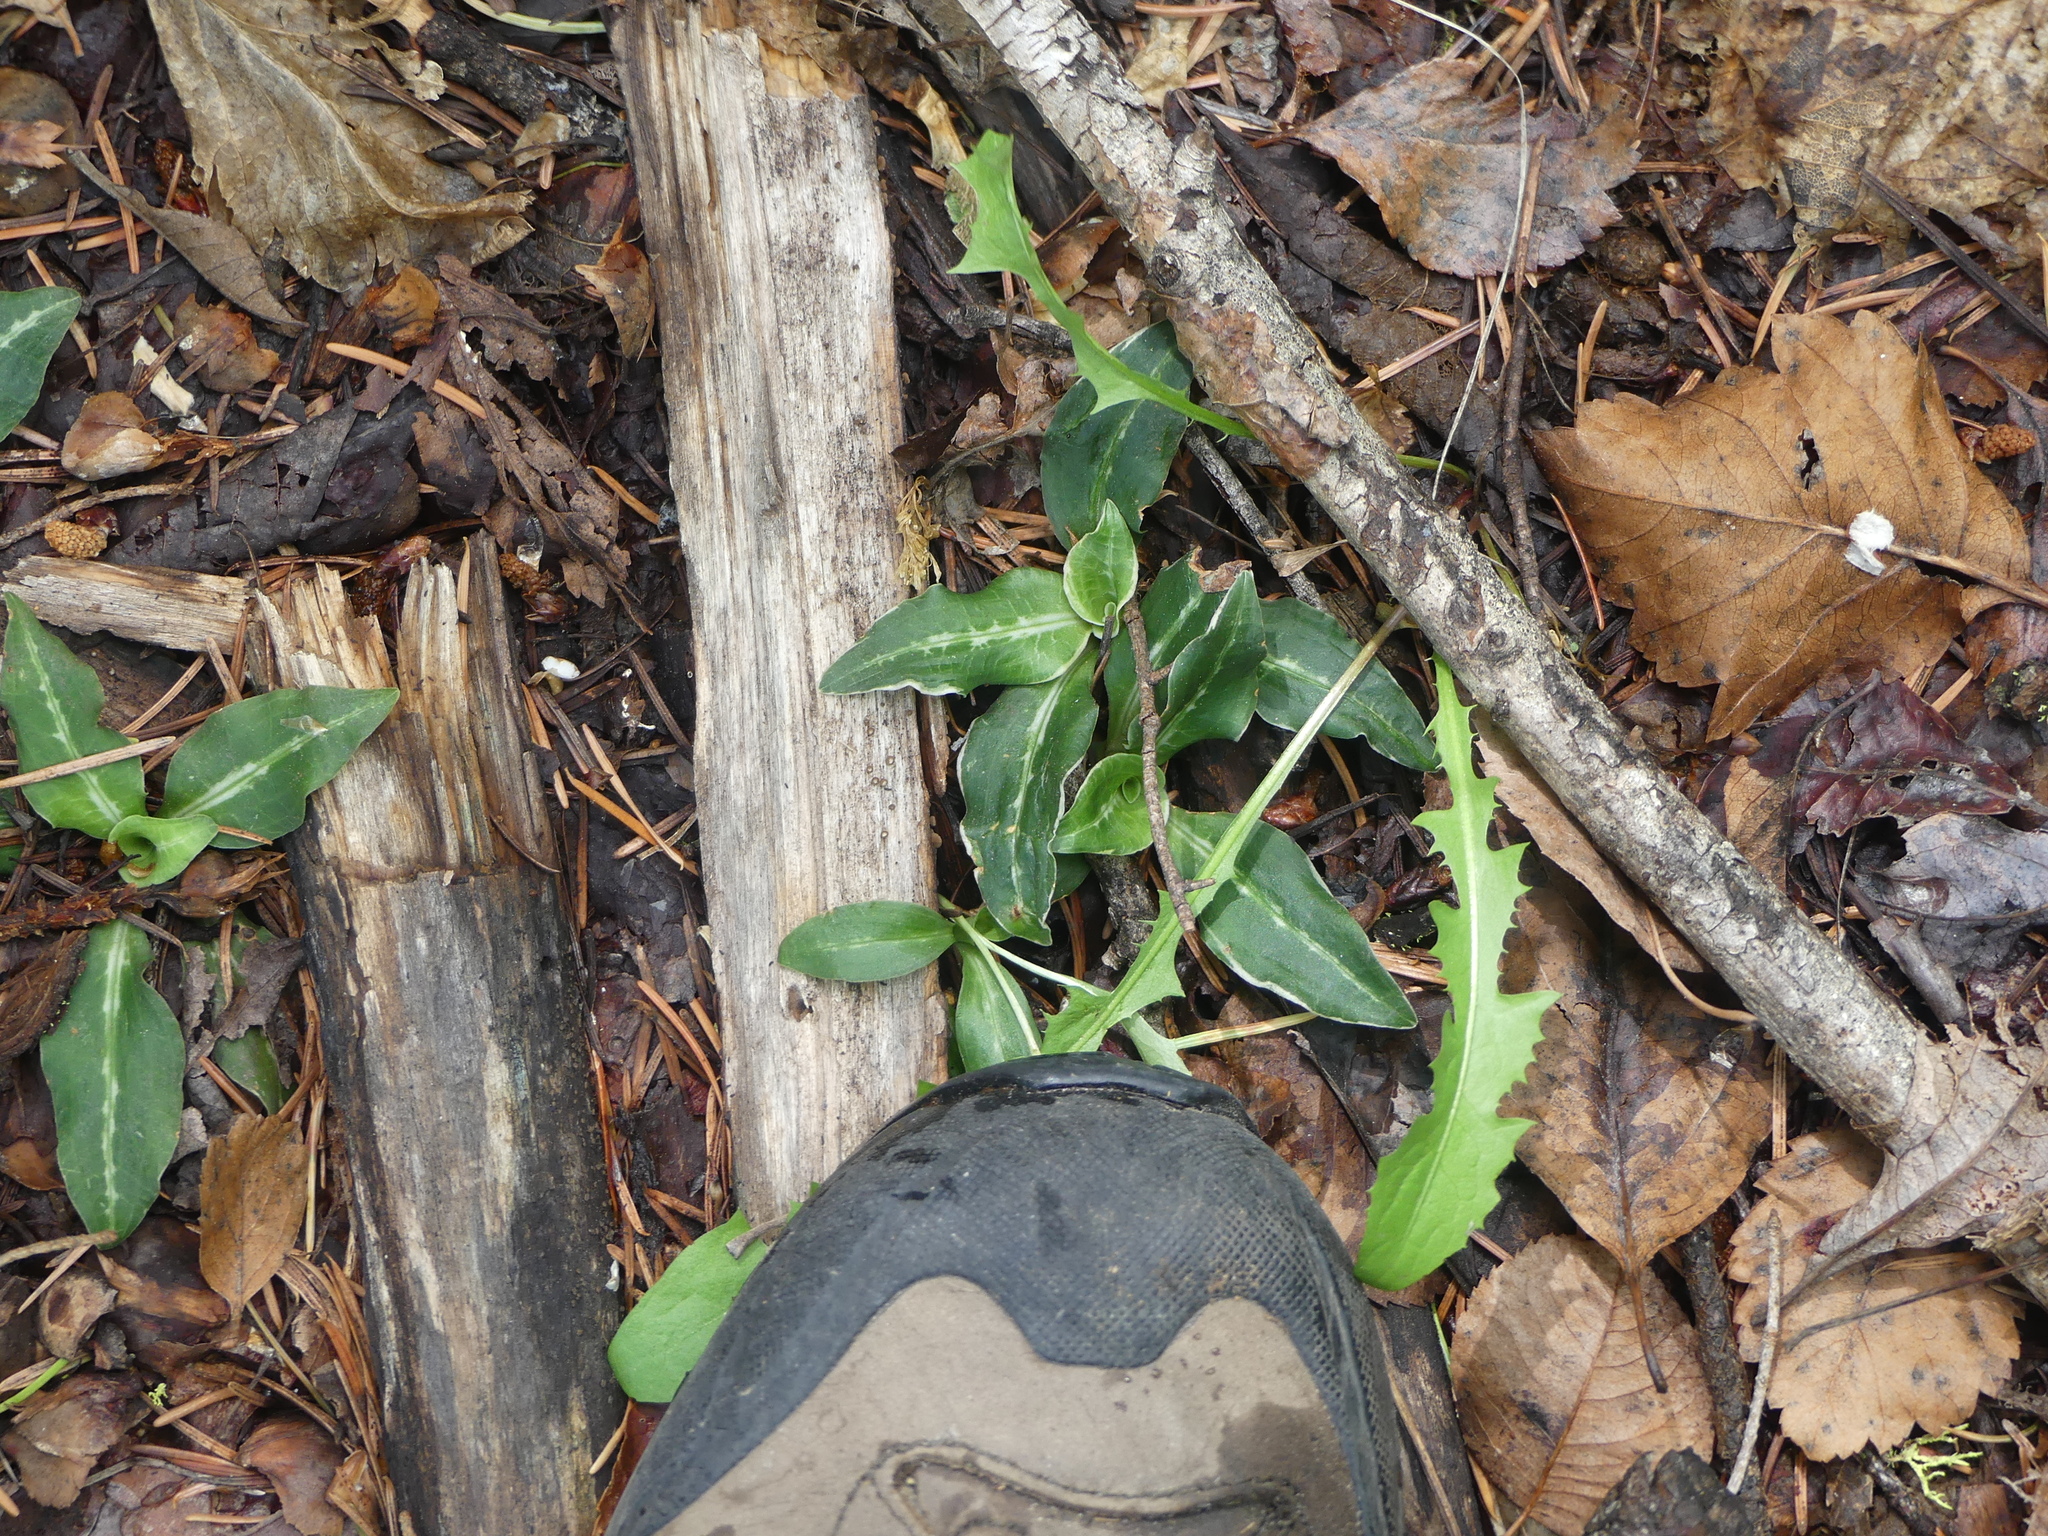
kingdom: Plantae
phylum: Tracheophyta
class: Liliopsida
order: Asparagales
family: Orchidaceae
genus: Goodyera
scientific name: Goodyera oblongifolia
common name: Giant rattlesnake-plantain
